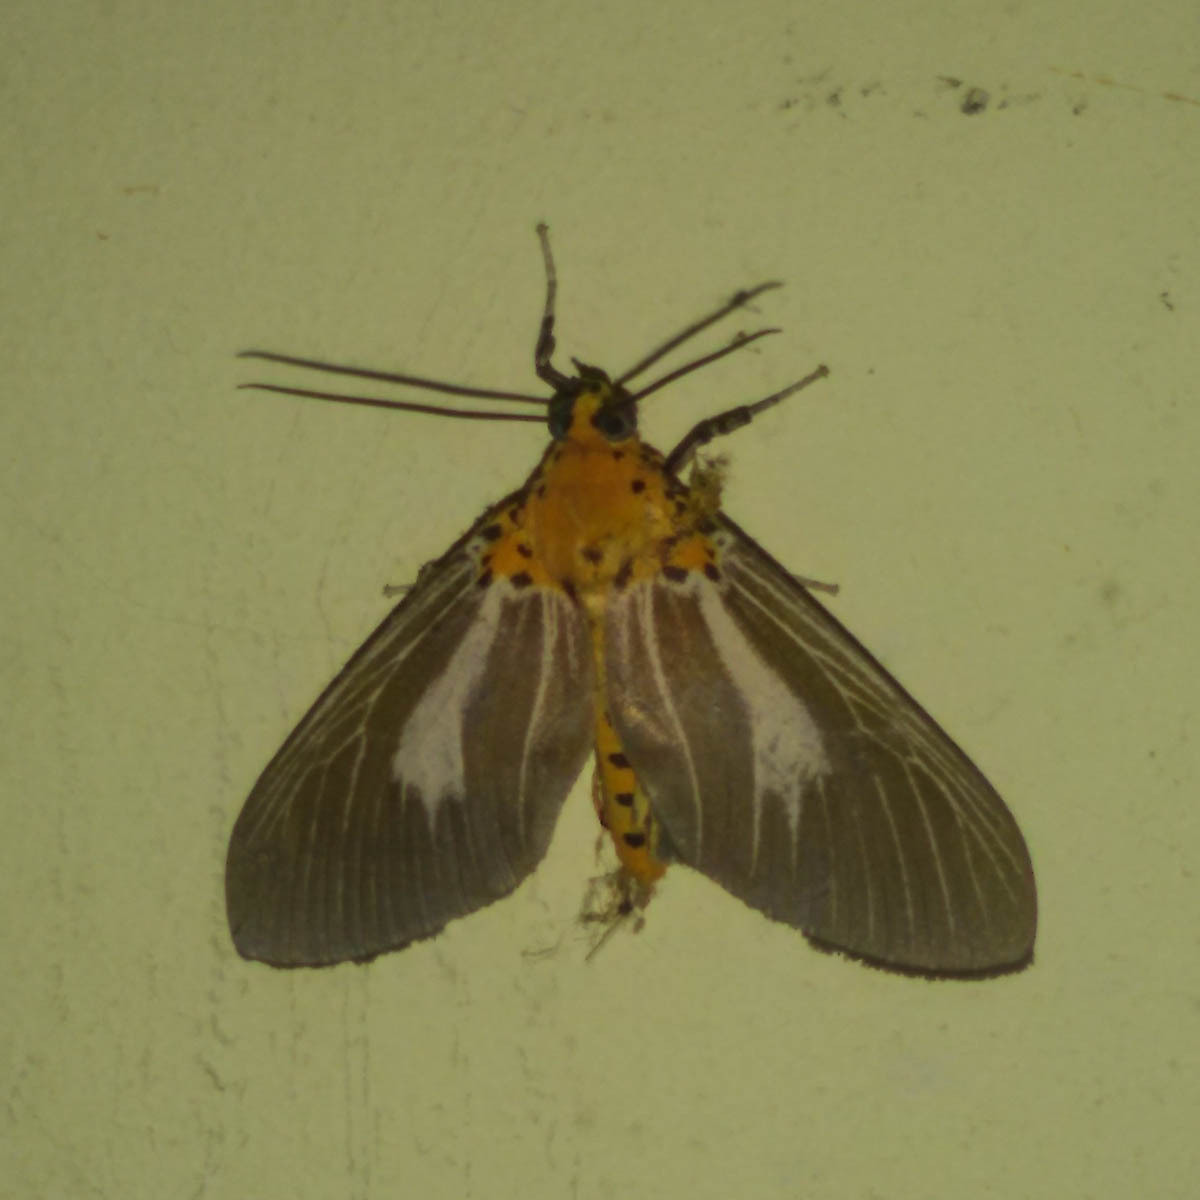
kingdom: Animalia
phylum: Arthropoda
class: Insecta
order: Lepidoptera
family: Erebidae
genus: Asota
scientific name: Asota subsimilis
